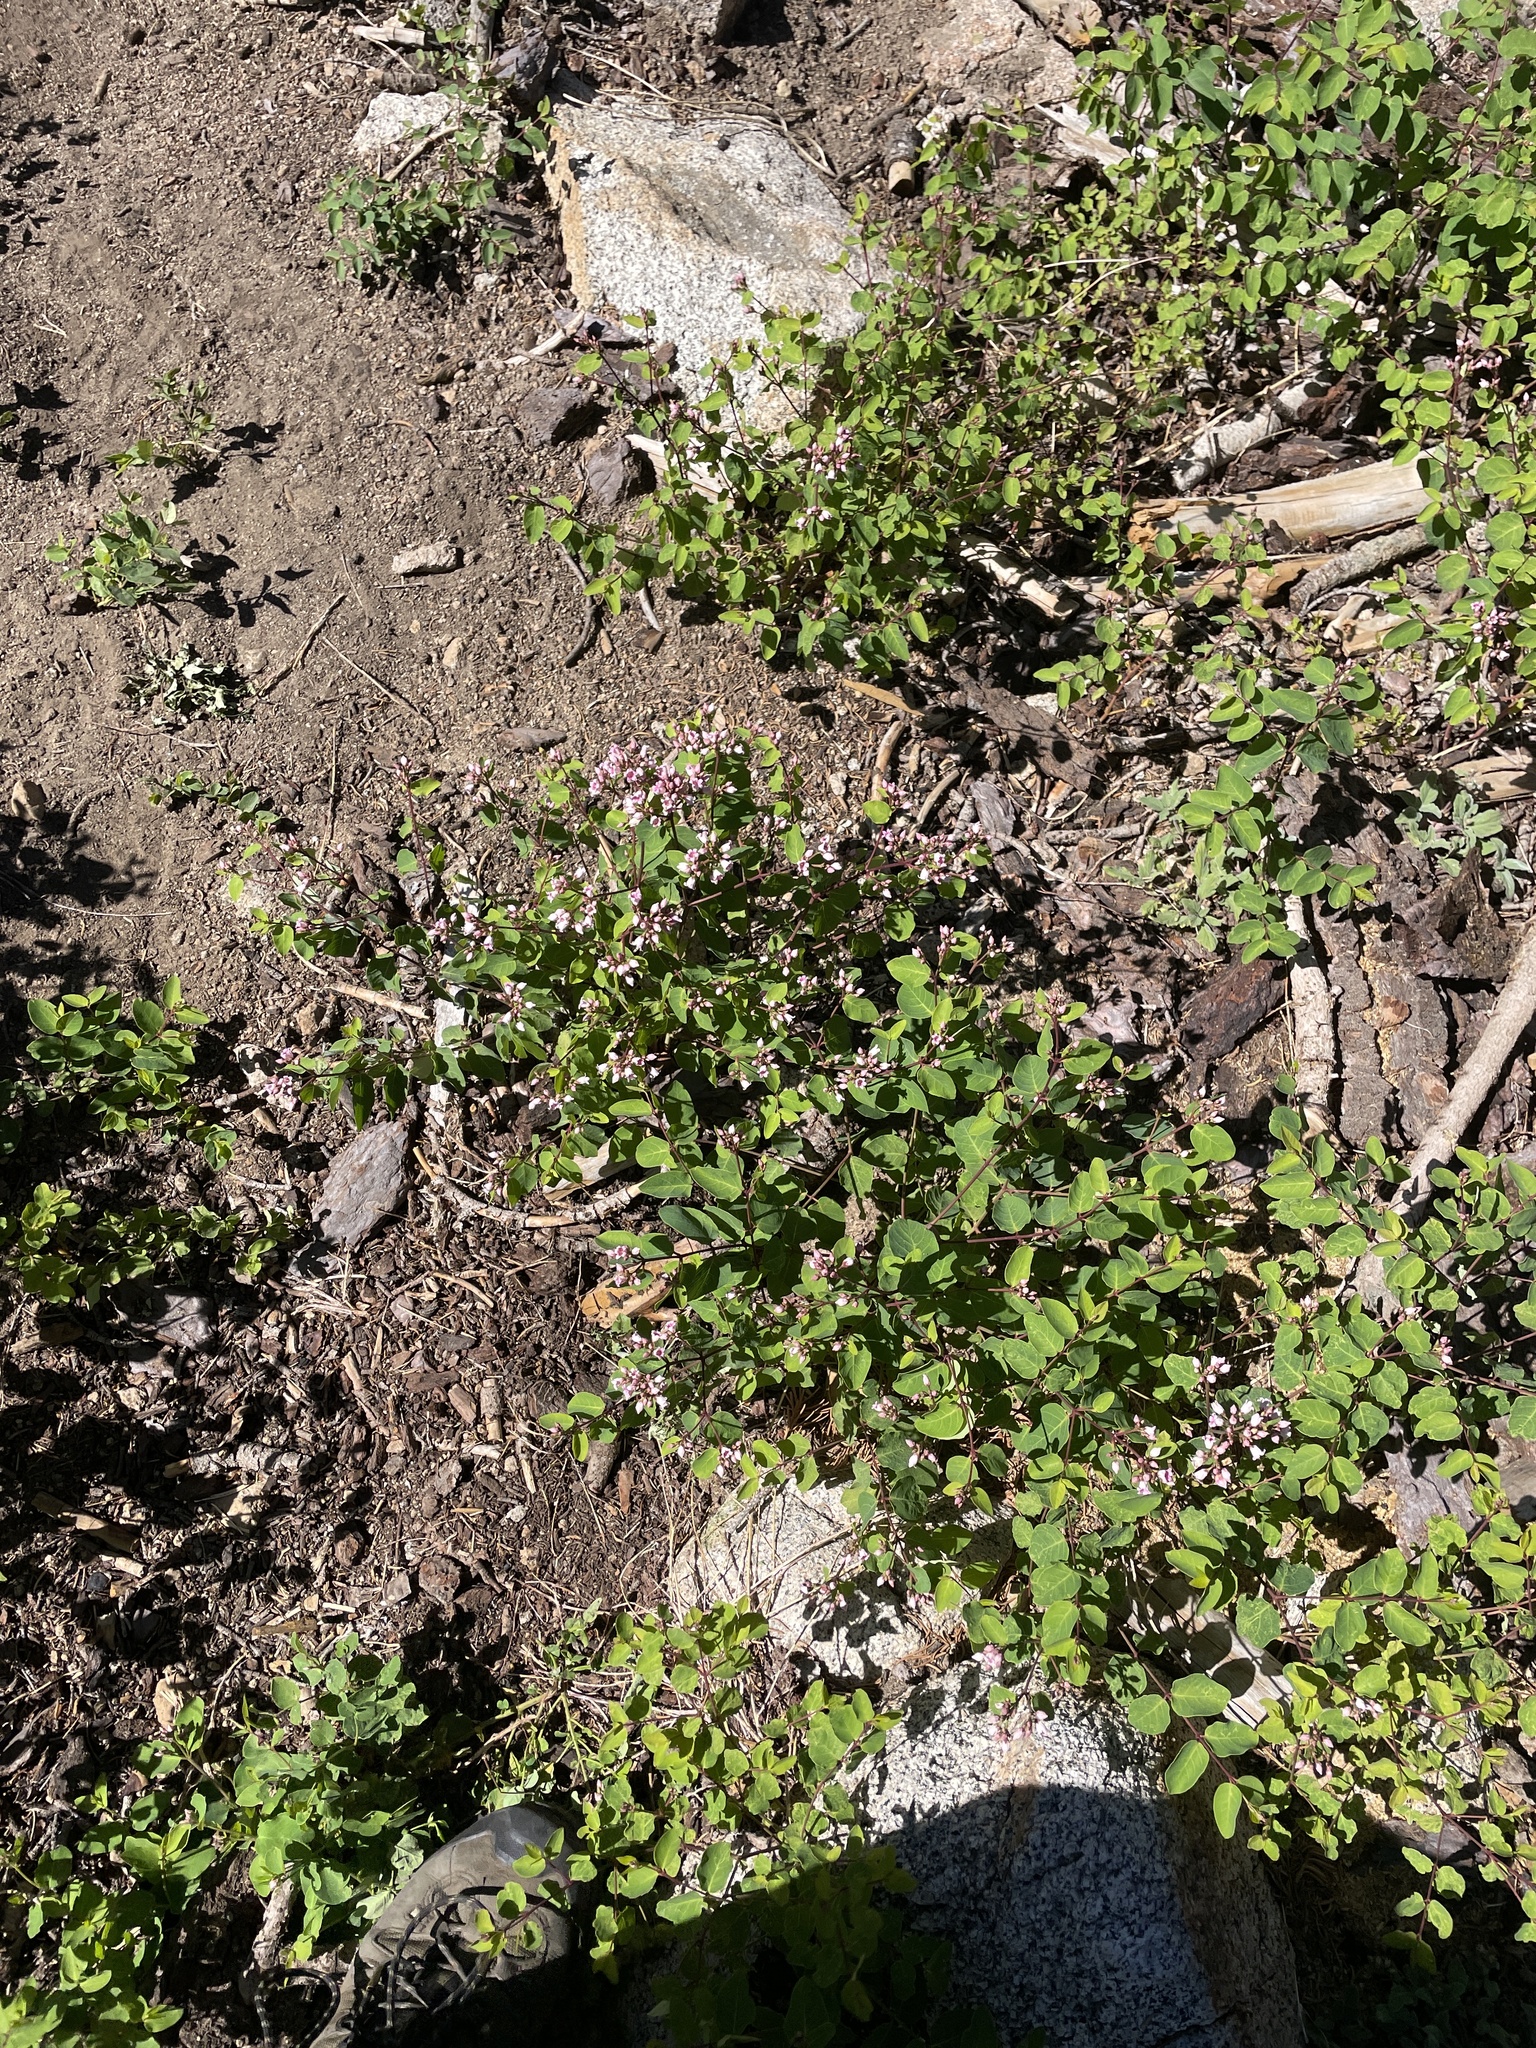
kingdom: Plantae
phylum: Tracheophyta
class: Magnoliopsida
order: Gentianales
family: Apocynaceae
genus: Apocynum
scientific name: Apocynum androsaemifolium
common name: Spreading dogbane
